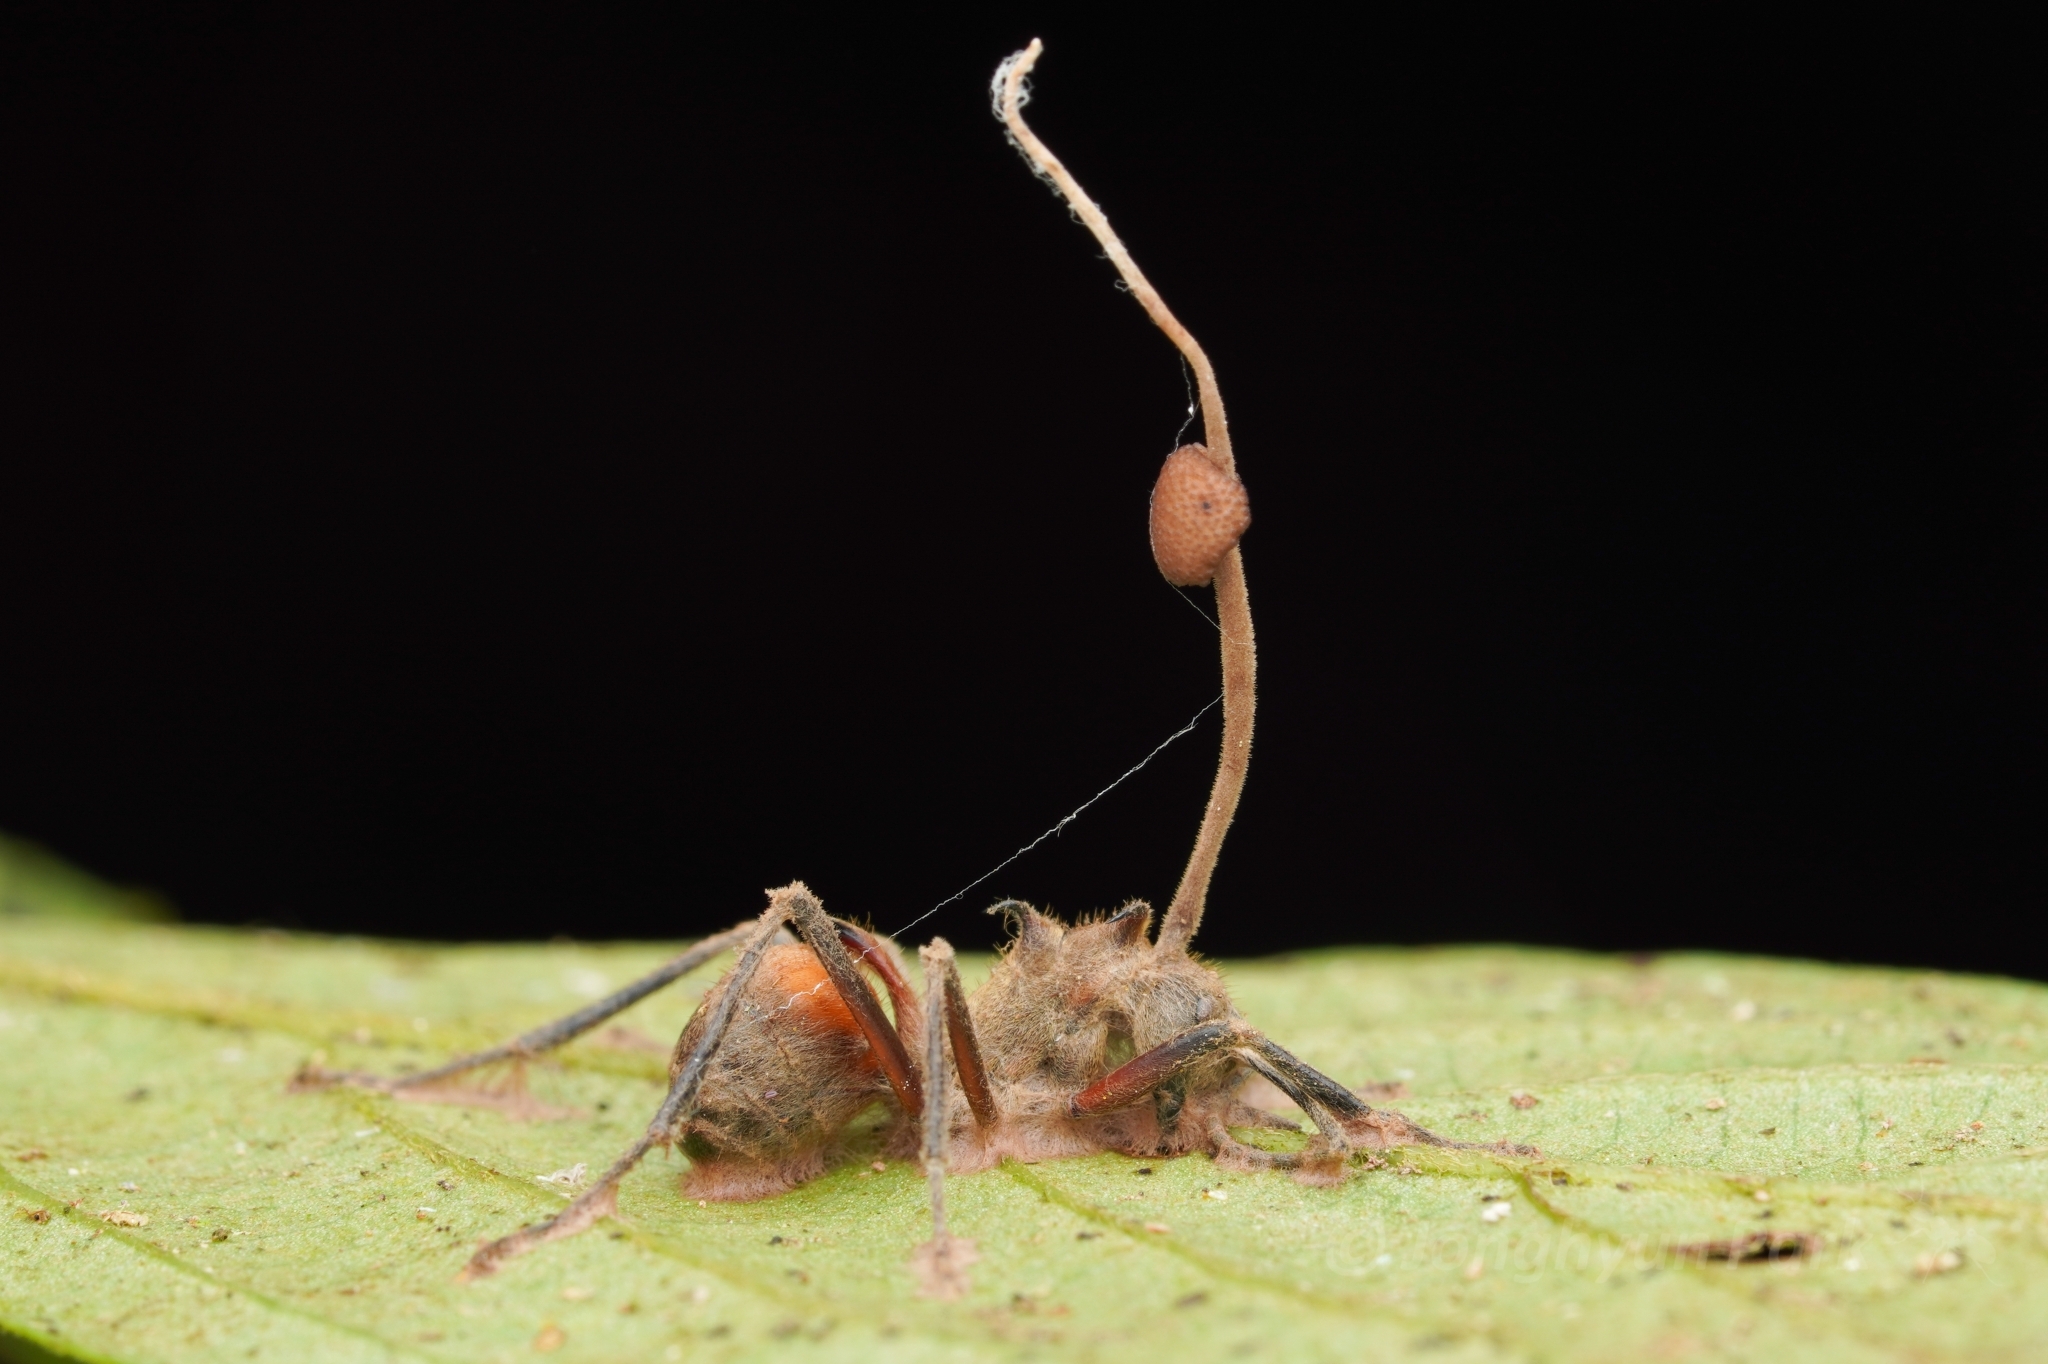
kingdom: Animalia
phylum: Arthropoda
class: Insecta
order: Hymenoptera
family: Formicidae
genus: Polyrhachis
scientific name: Polyrhachis bihamata
